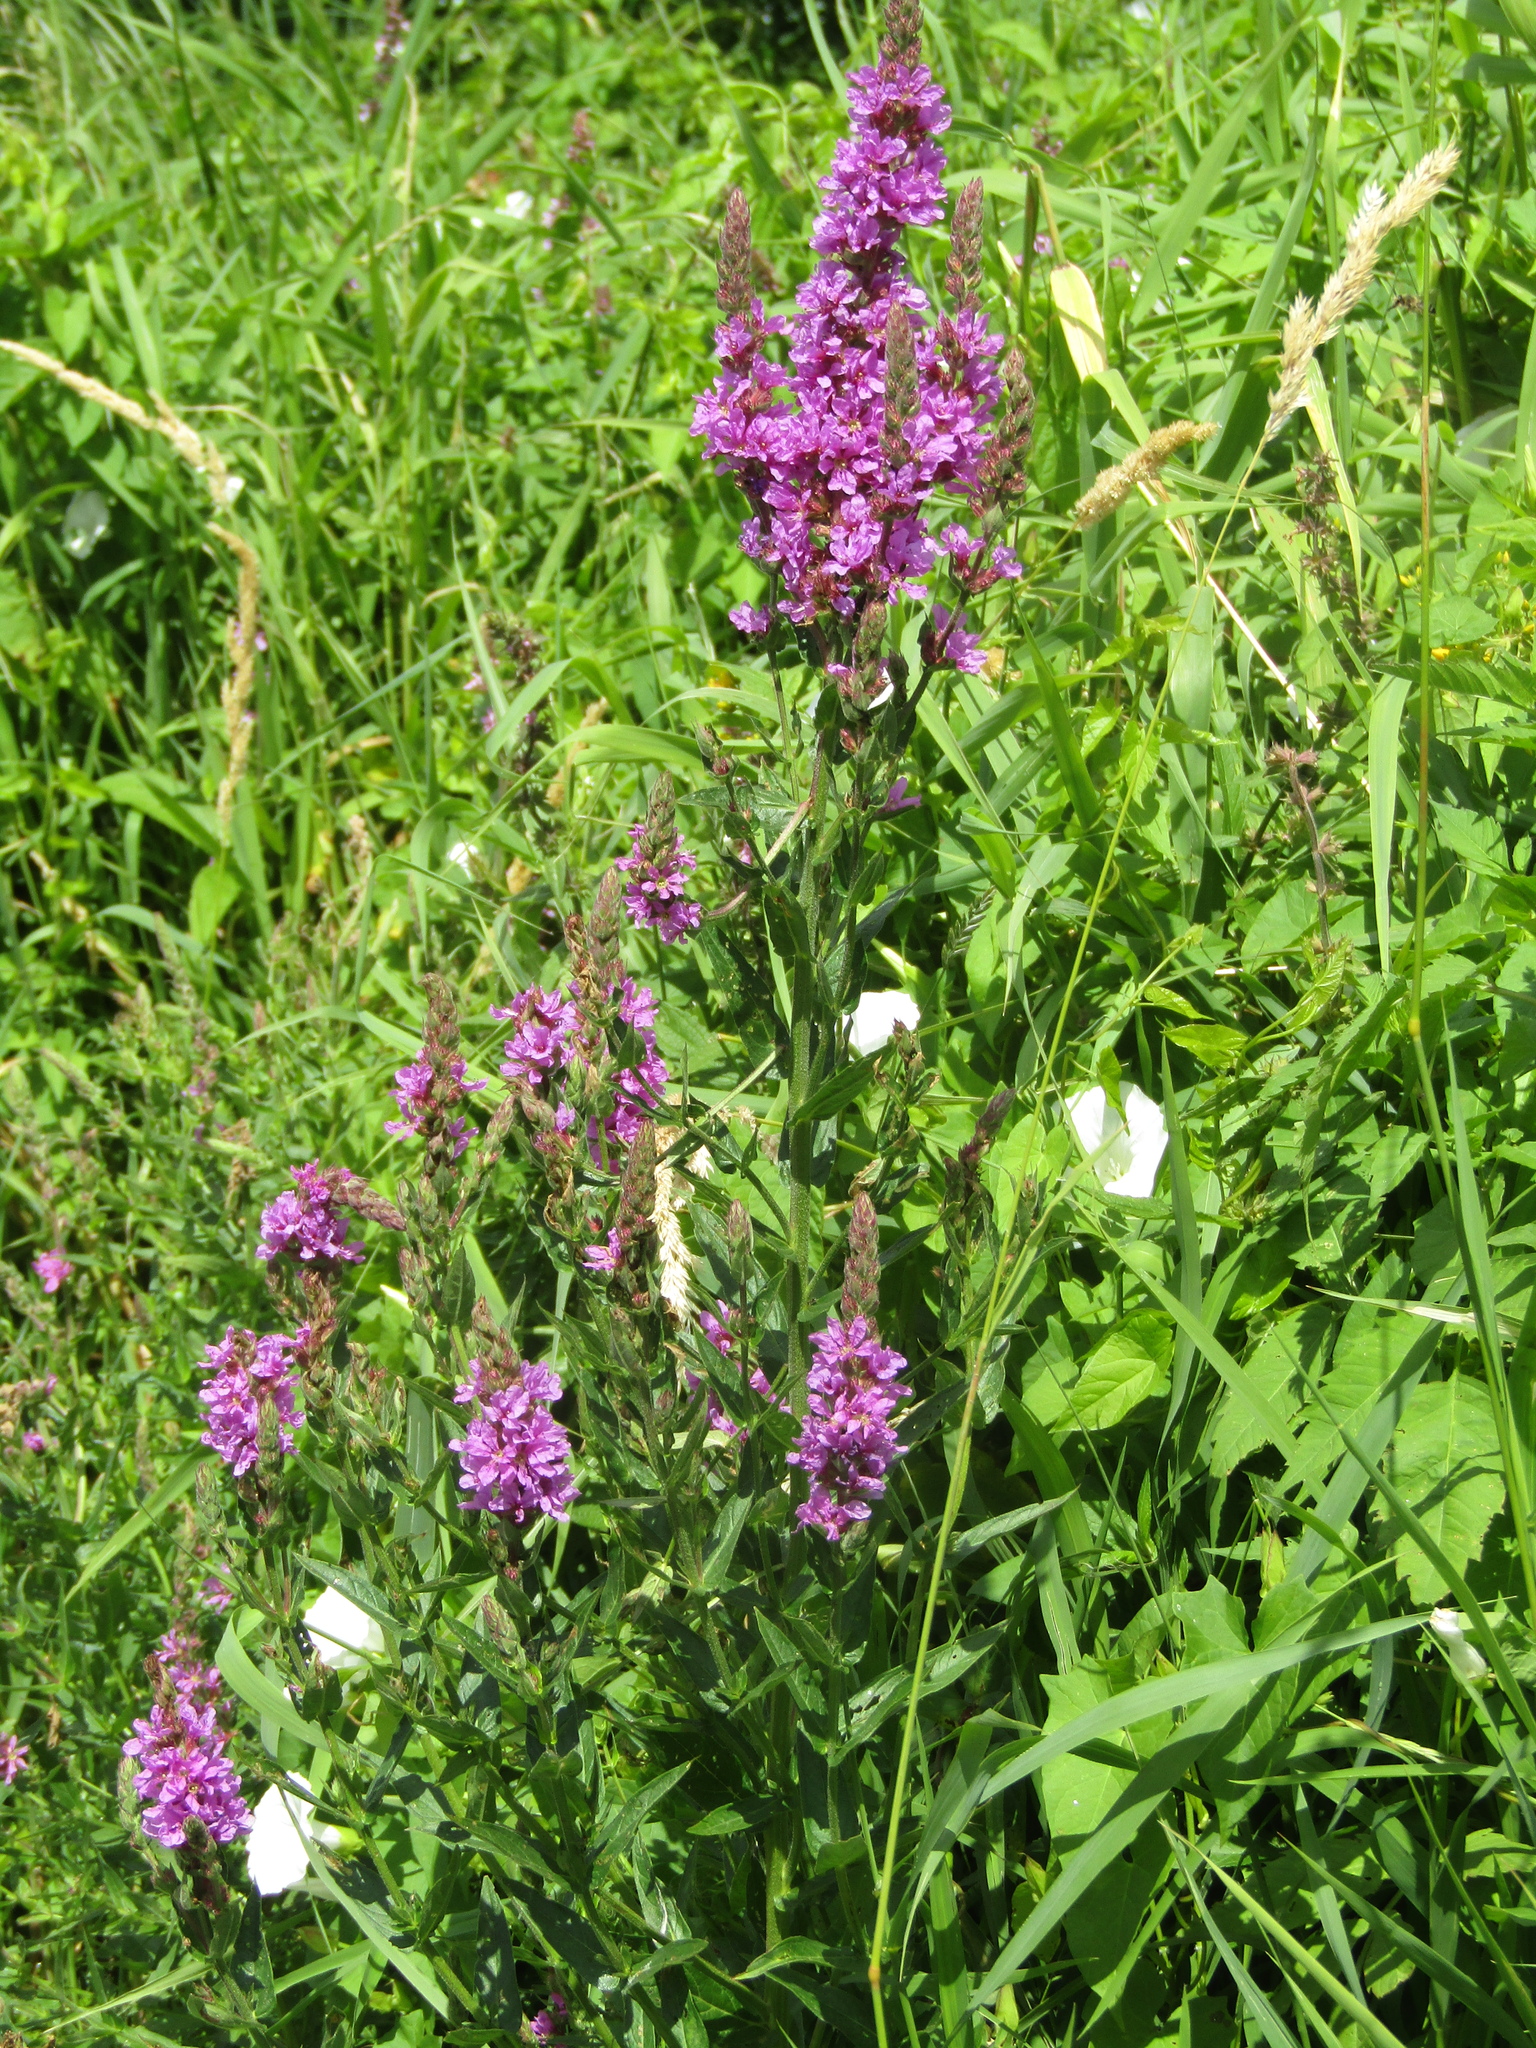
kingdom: Plantae
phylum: Tracheophyta
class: Magnoliopsida
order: Myrtales
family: Lythraceae
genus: Lythrum
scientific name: Lythrum salicaria
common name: Purple loosestrife
